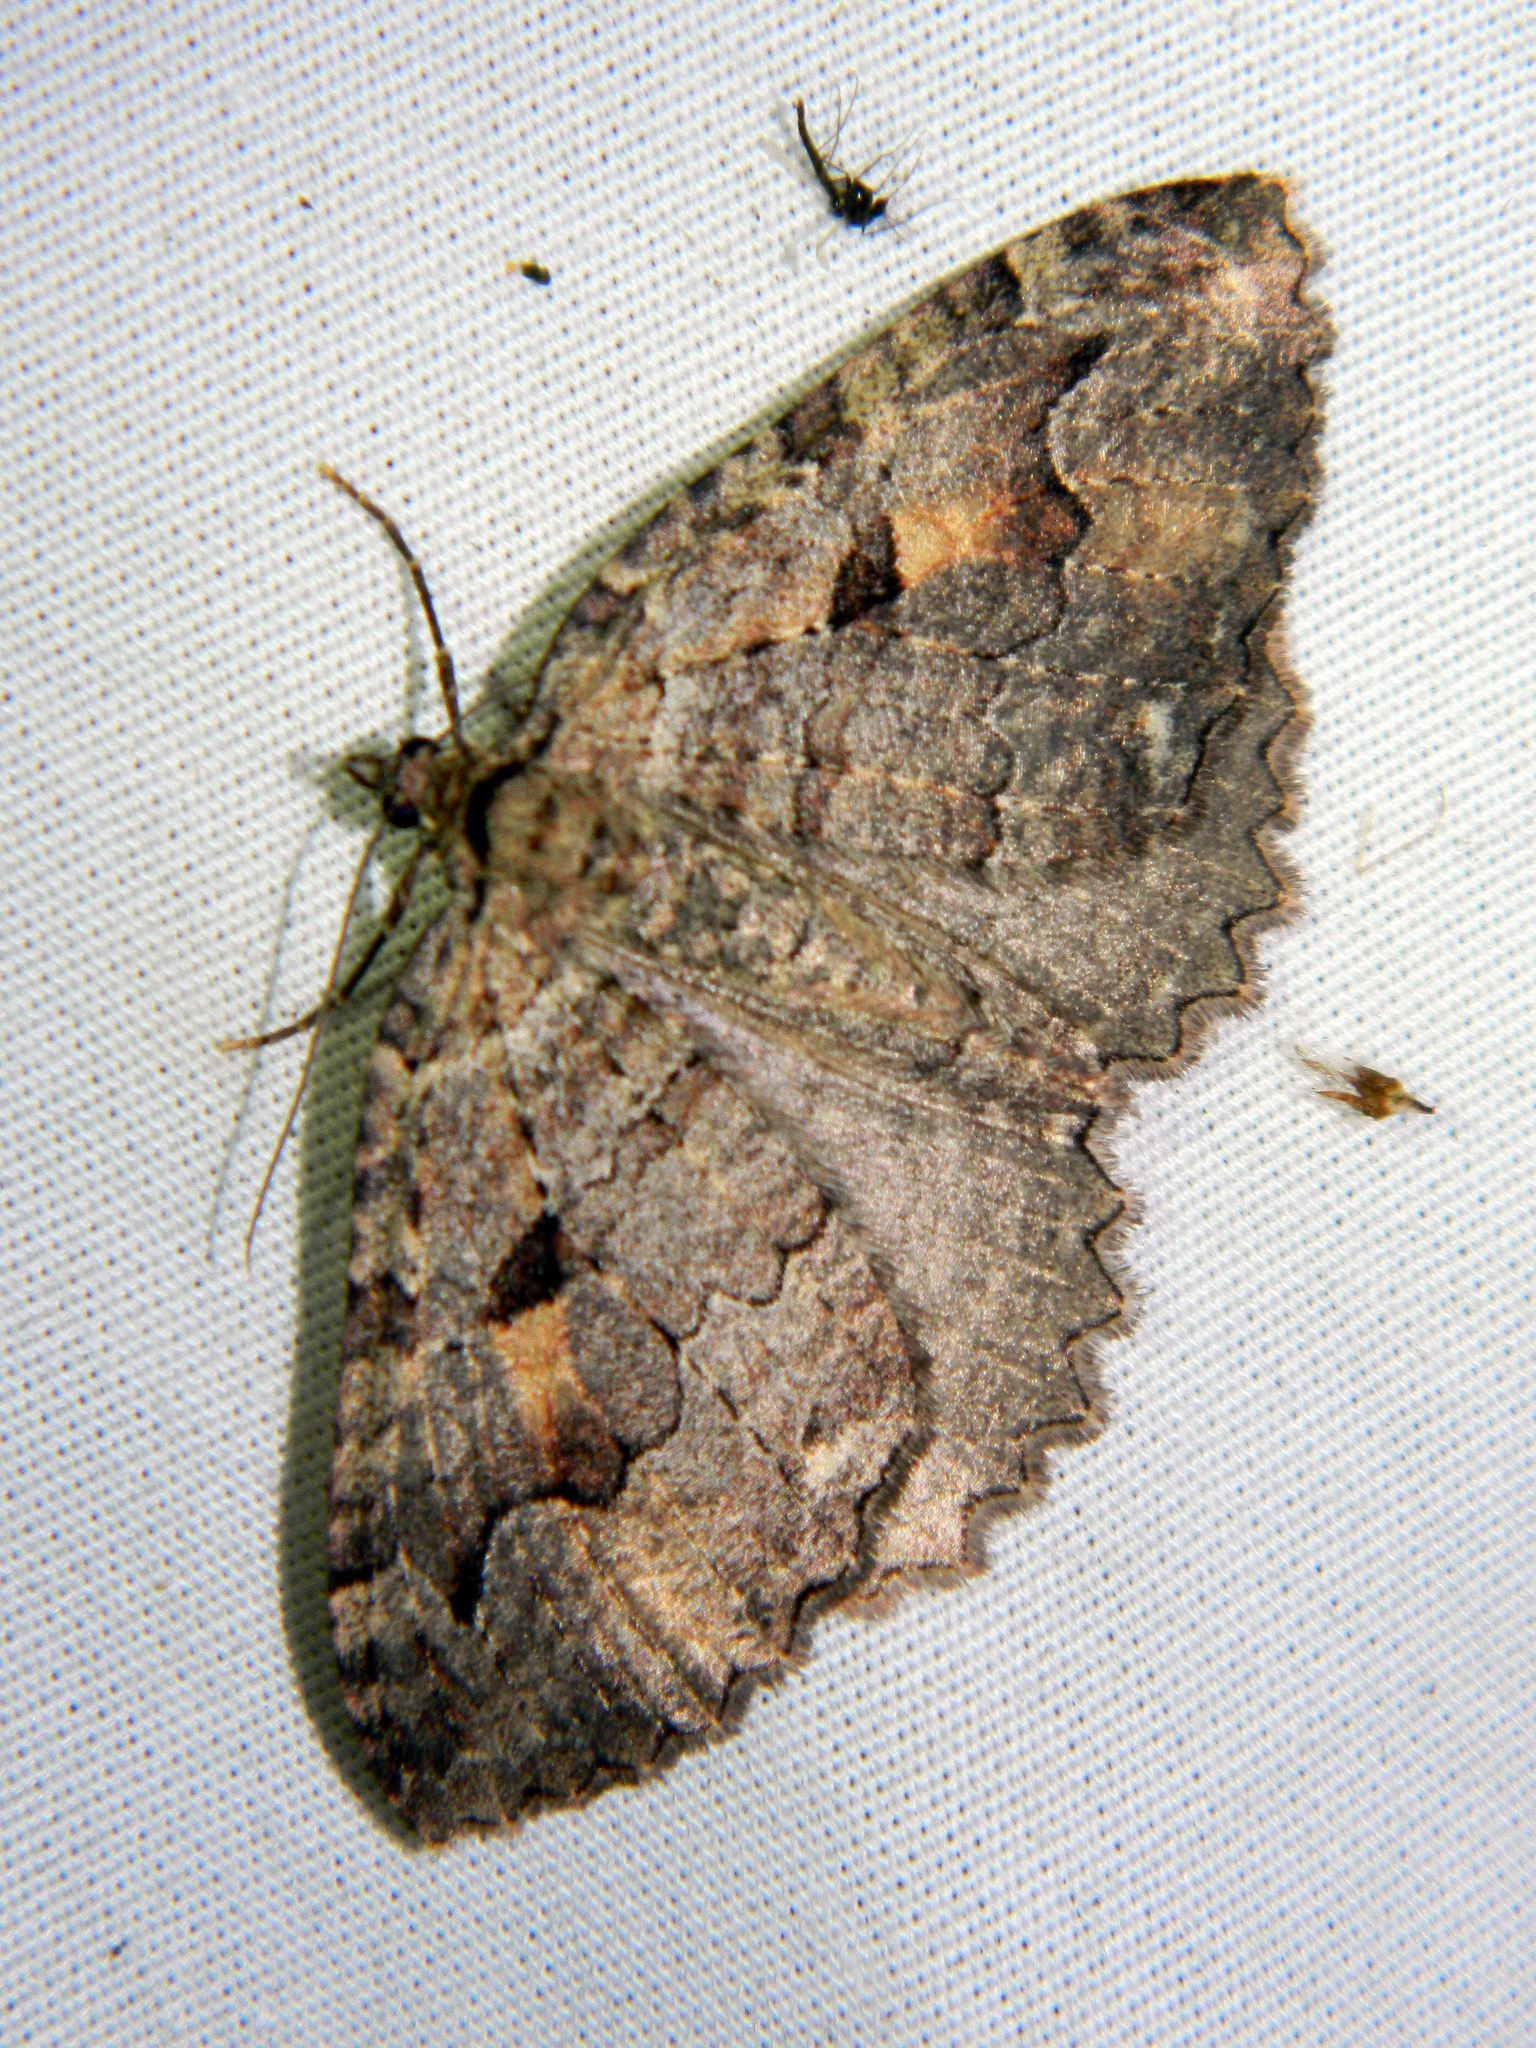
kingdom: Animalia
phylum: Arthropoda
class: Insecta
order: Lepidoptera
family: Geometridae
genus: Triphosa
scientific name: Triphosa haesitata
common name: Tissue moth
